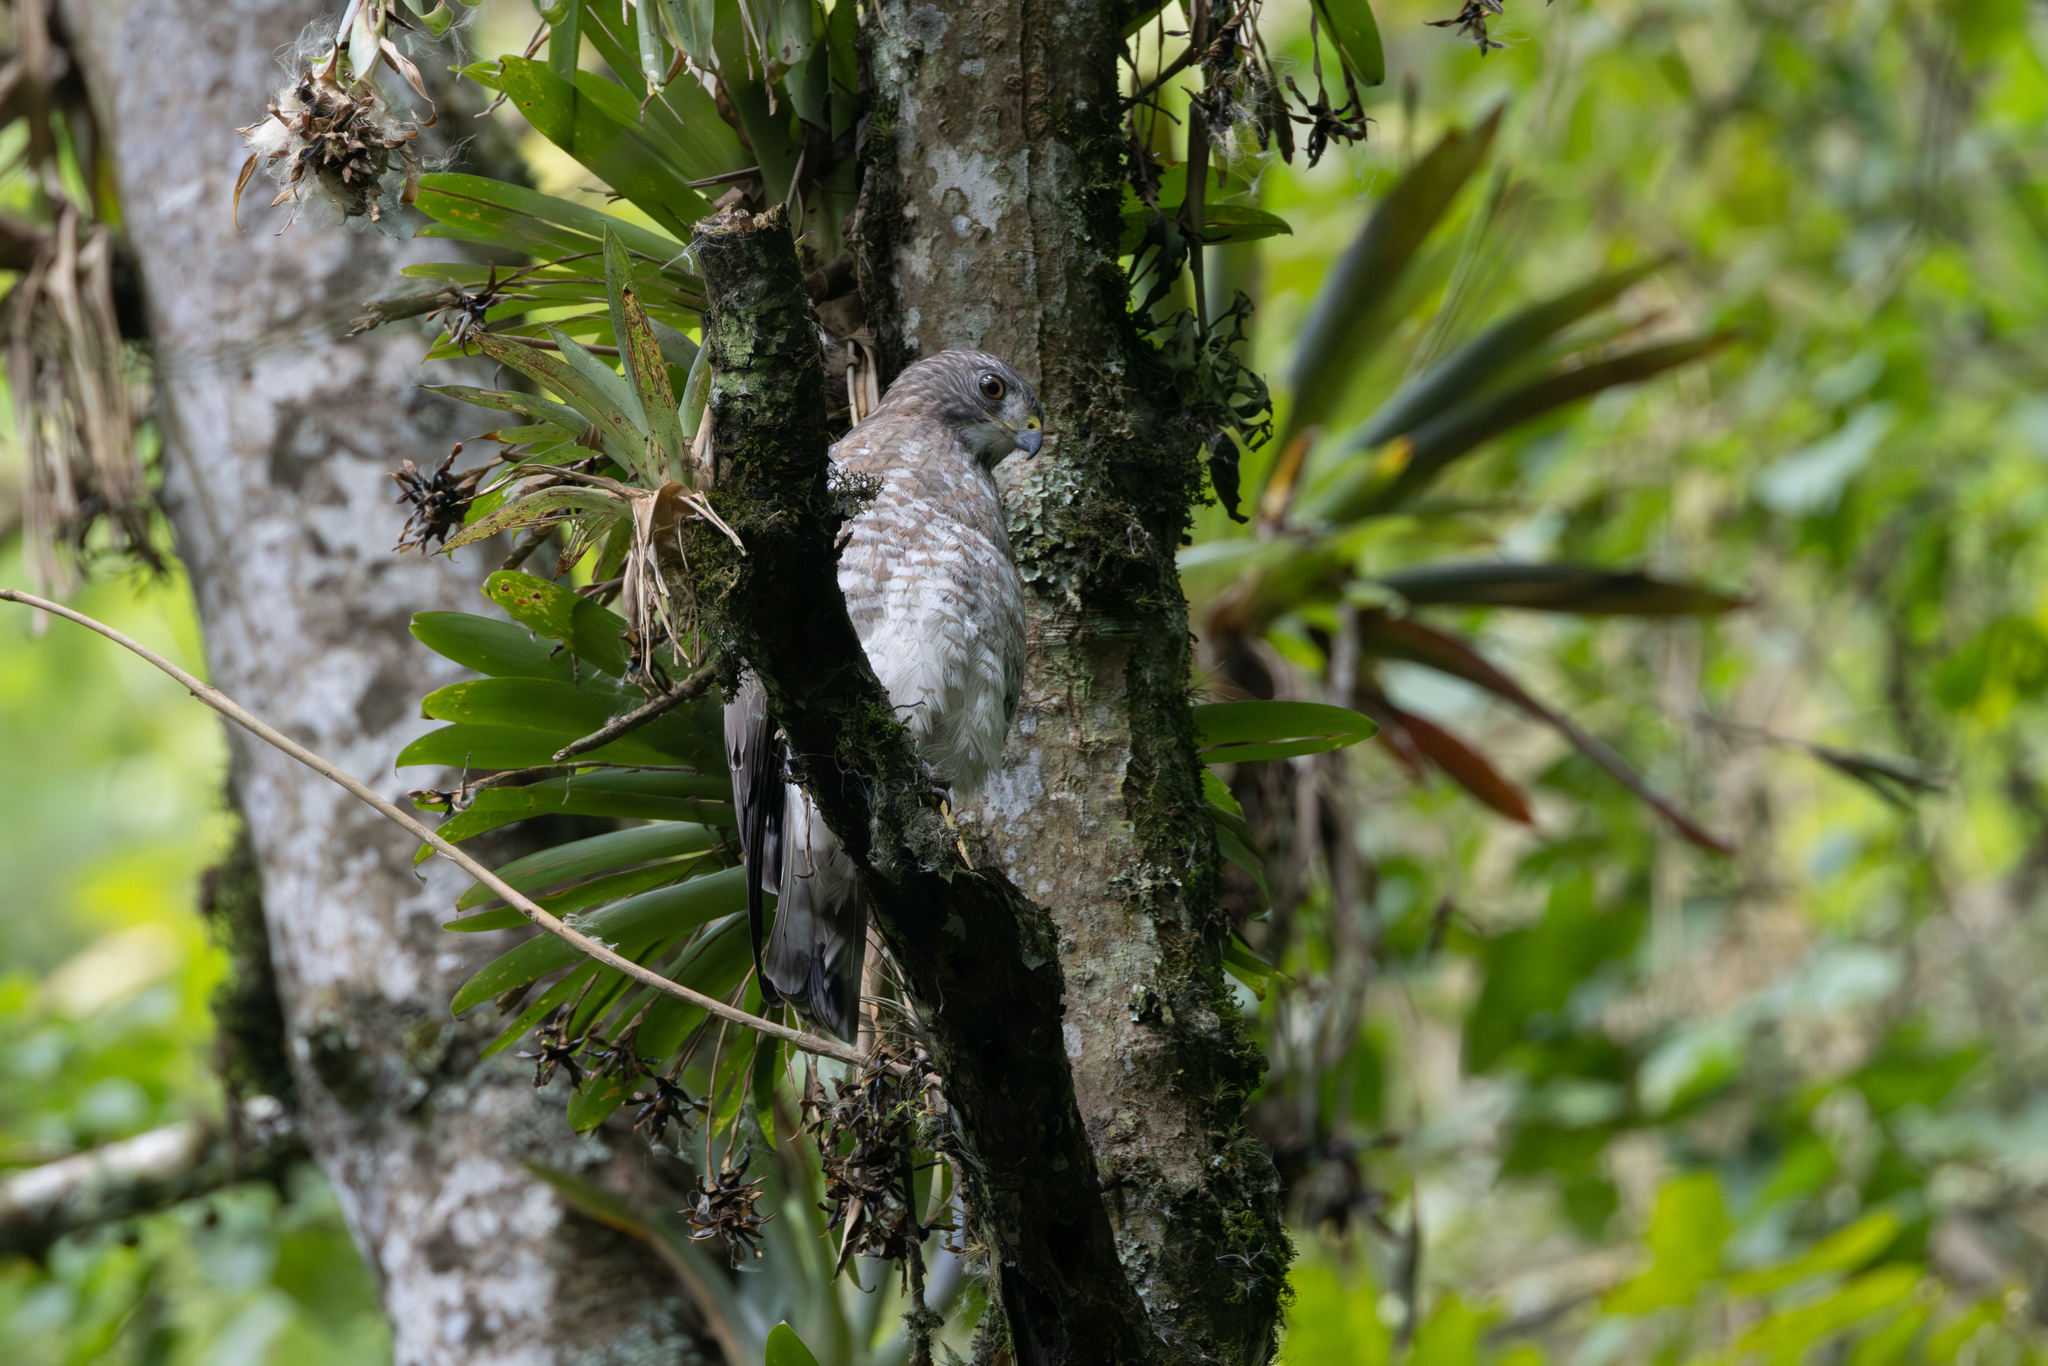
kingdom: Animalia
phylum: Chordata
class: Aves
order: Accipitriformes
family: Accipitridae
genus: Buteo
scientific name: Buteo platypterus
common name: Broad-winged hawk
